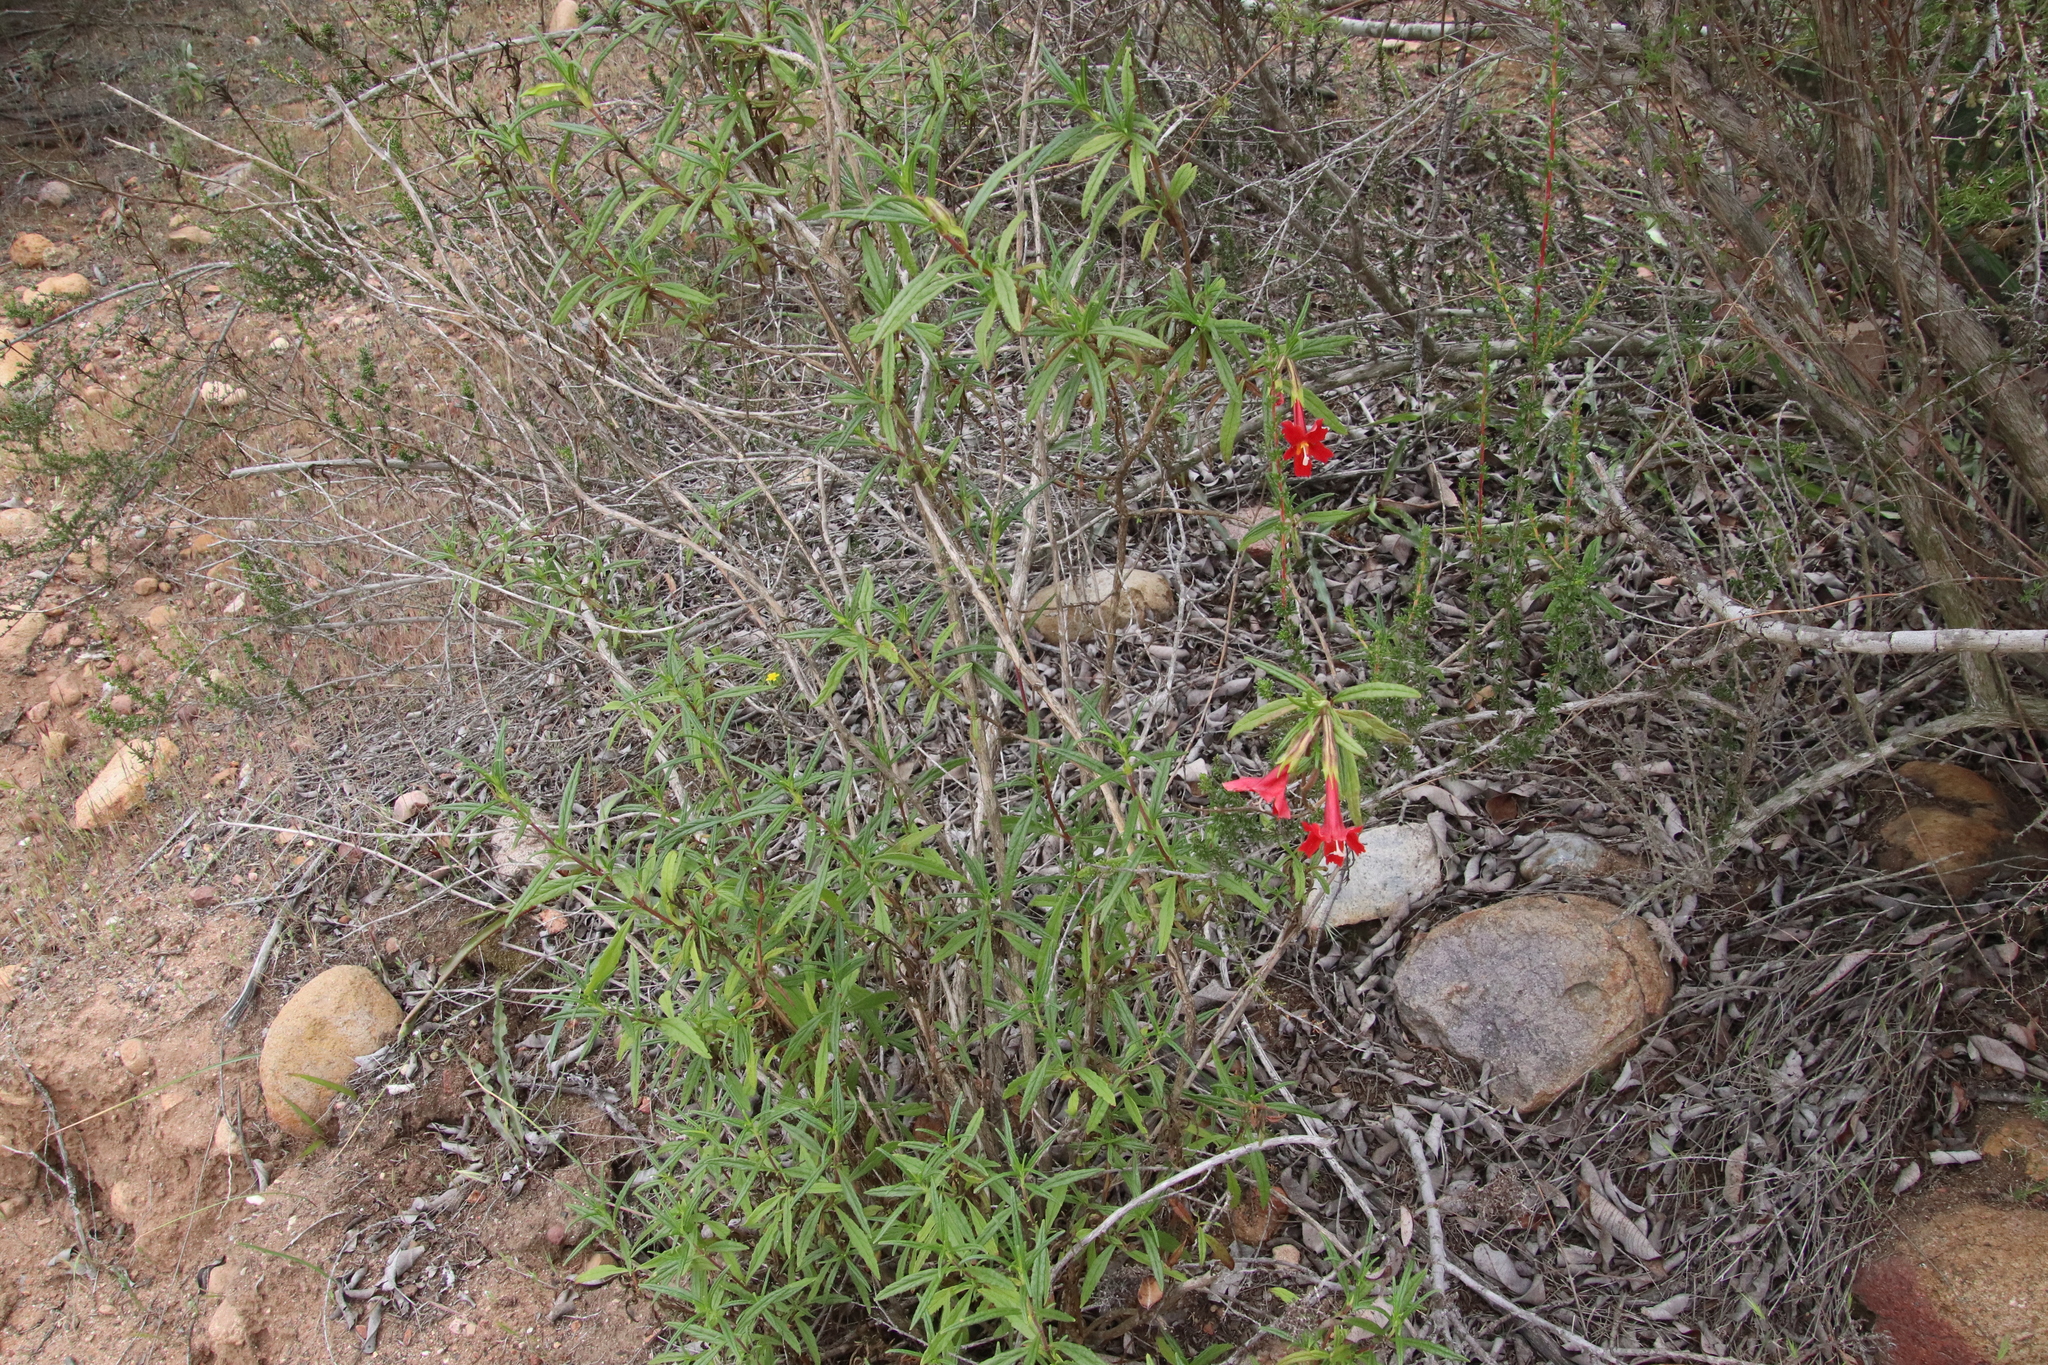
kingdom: Plantae
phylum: Tracheophyta
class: Magnoliopsida
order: Lamiales
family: Phrymaceae
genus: Diplacus
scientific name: Diplacus puniceus
